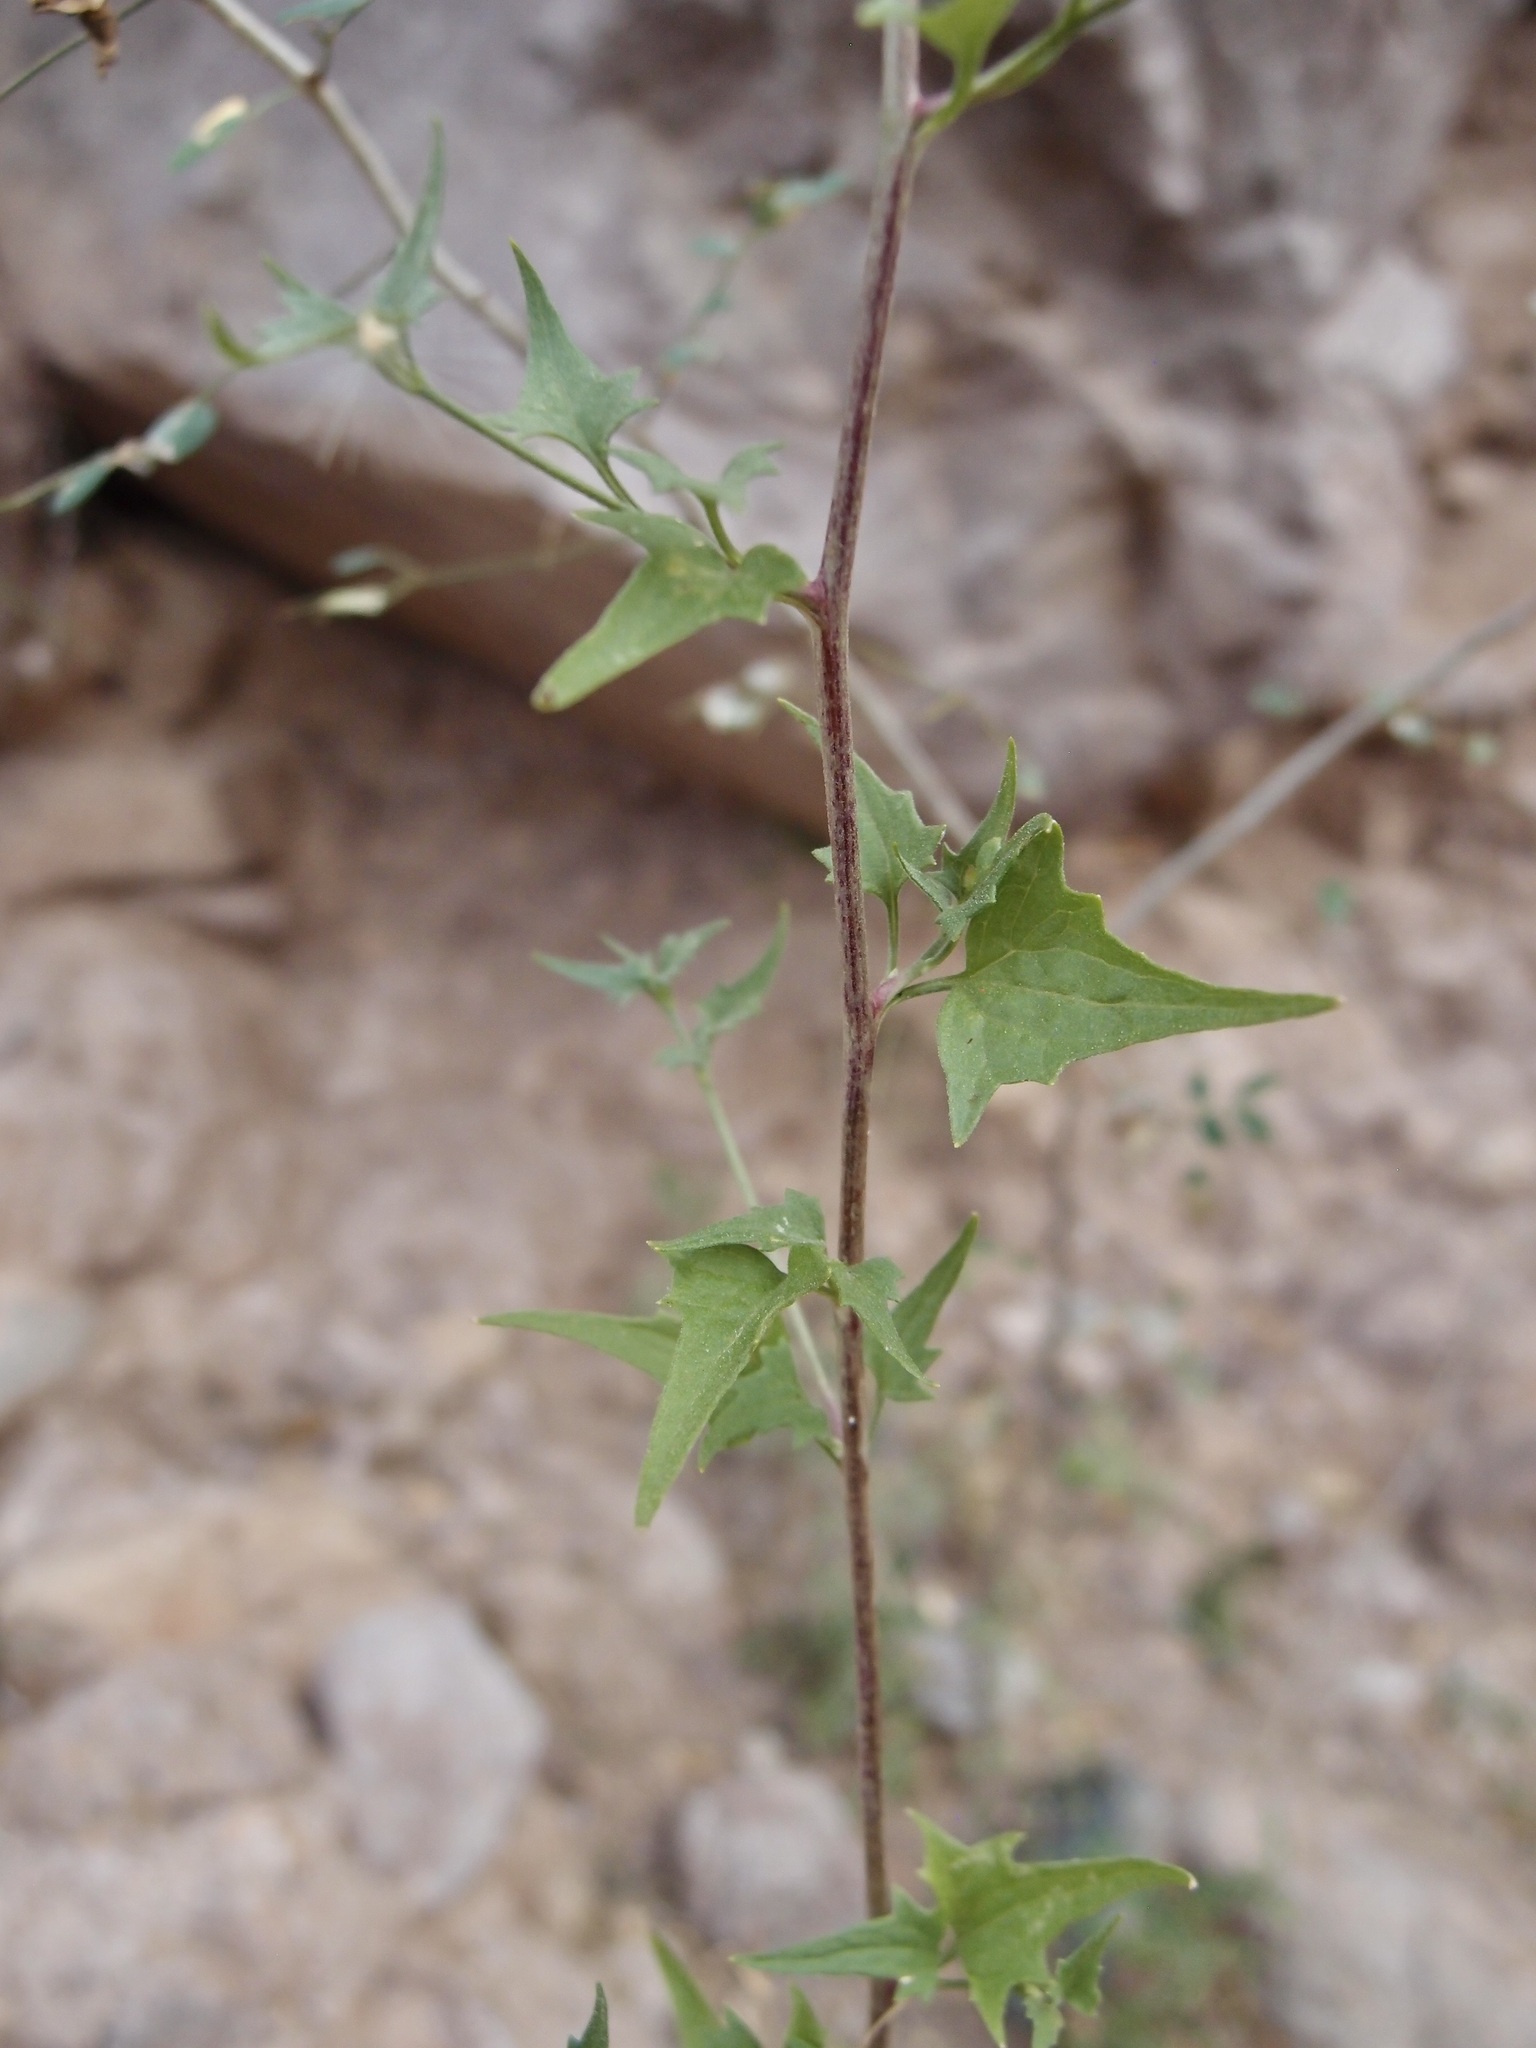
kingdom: Plantae
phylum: Tracheophyta
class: Magnoliopsida
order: Asterales
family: Asteraceae
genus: Brickellia
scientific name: Brickellia coulteri
